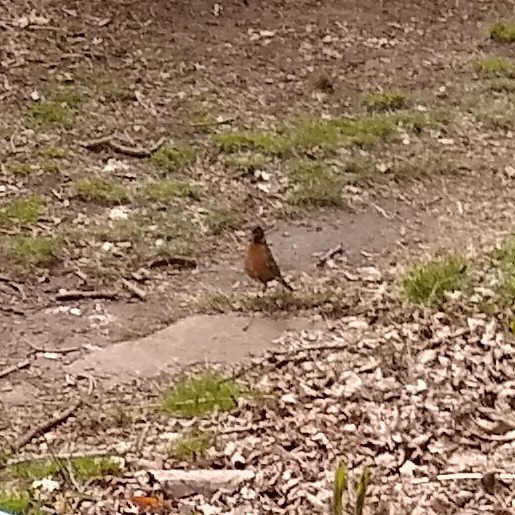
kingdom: Animalia
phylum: Chordata
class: Aves
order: Passeriformes
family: Turdidae
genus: Turdus
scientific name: Turdus migratorius
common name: American robin
